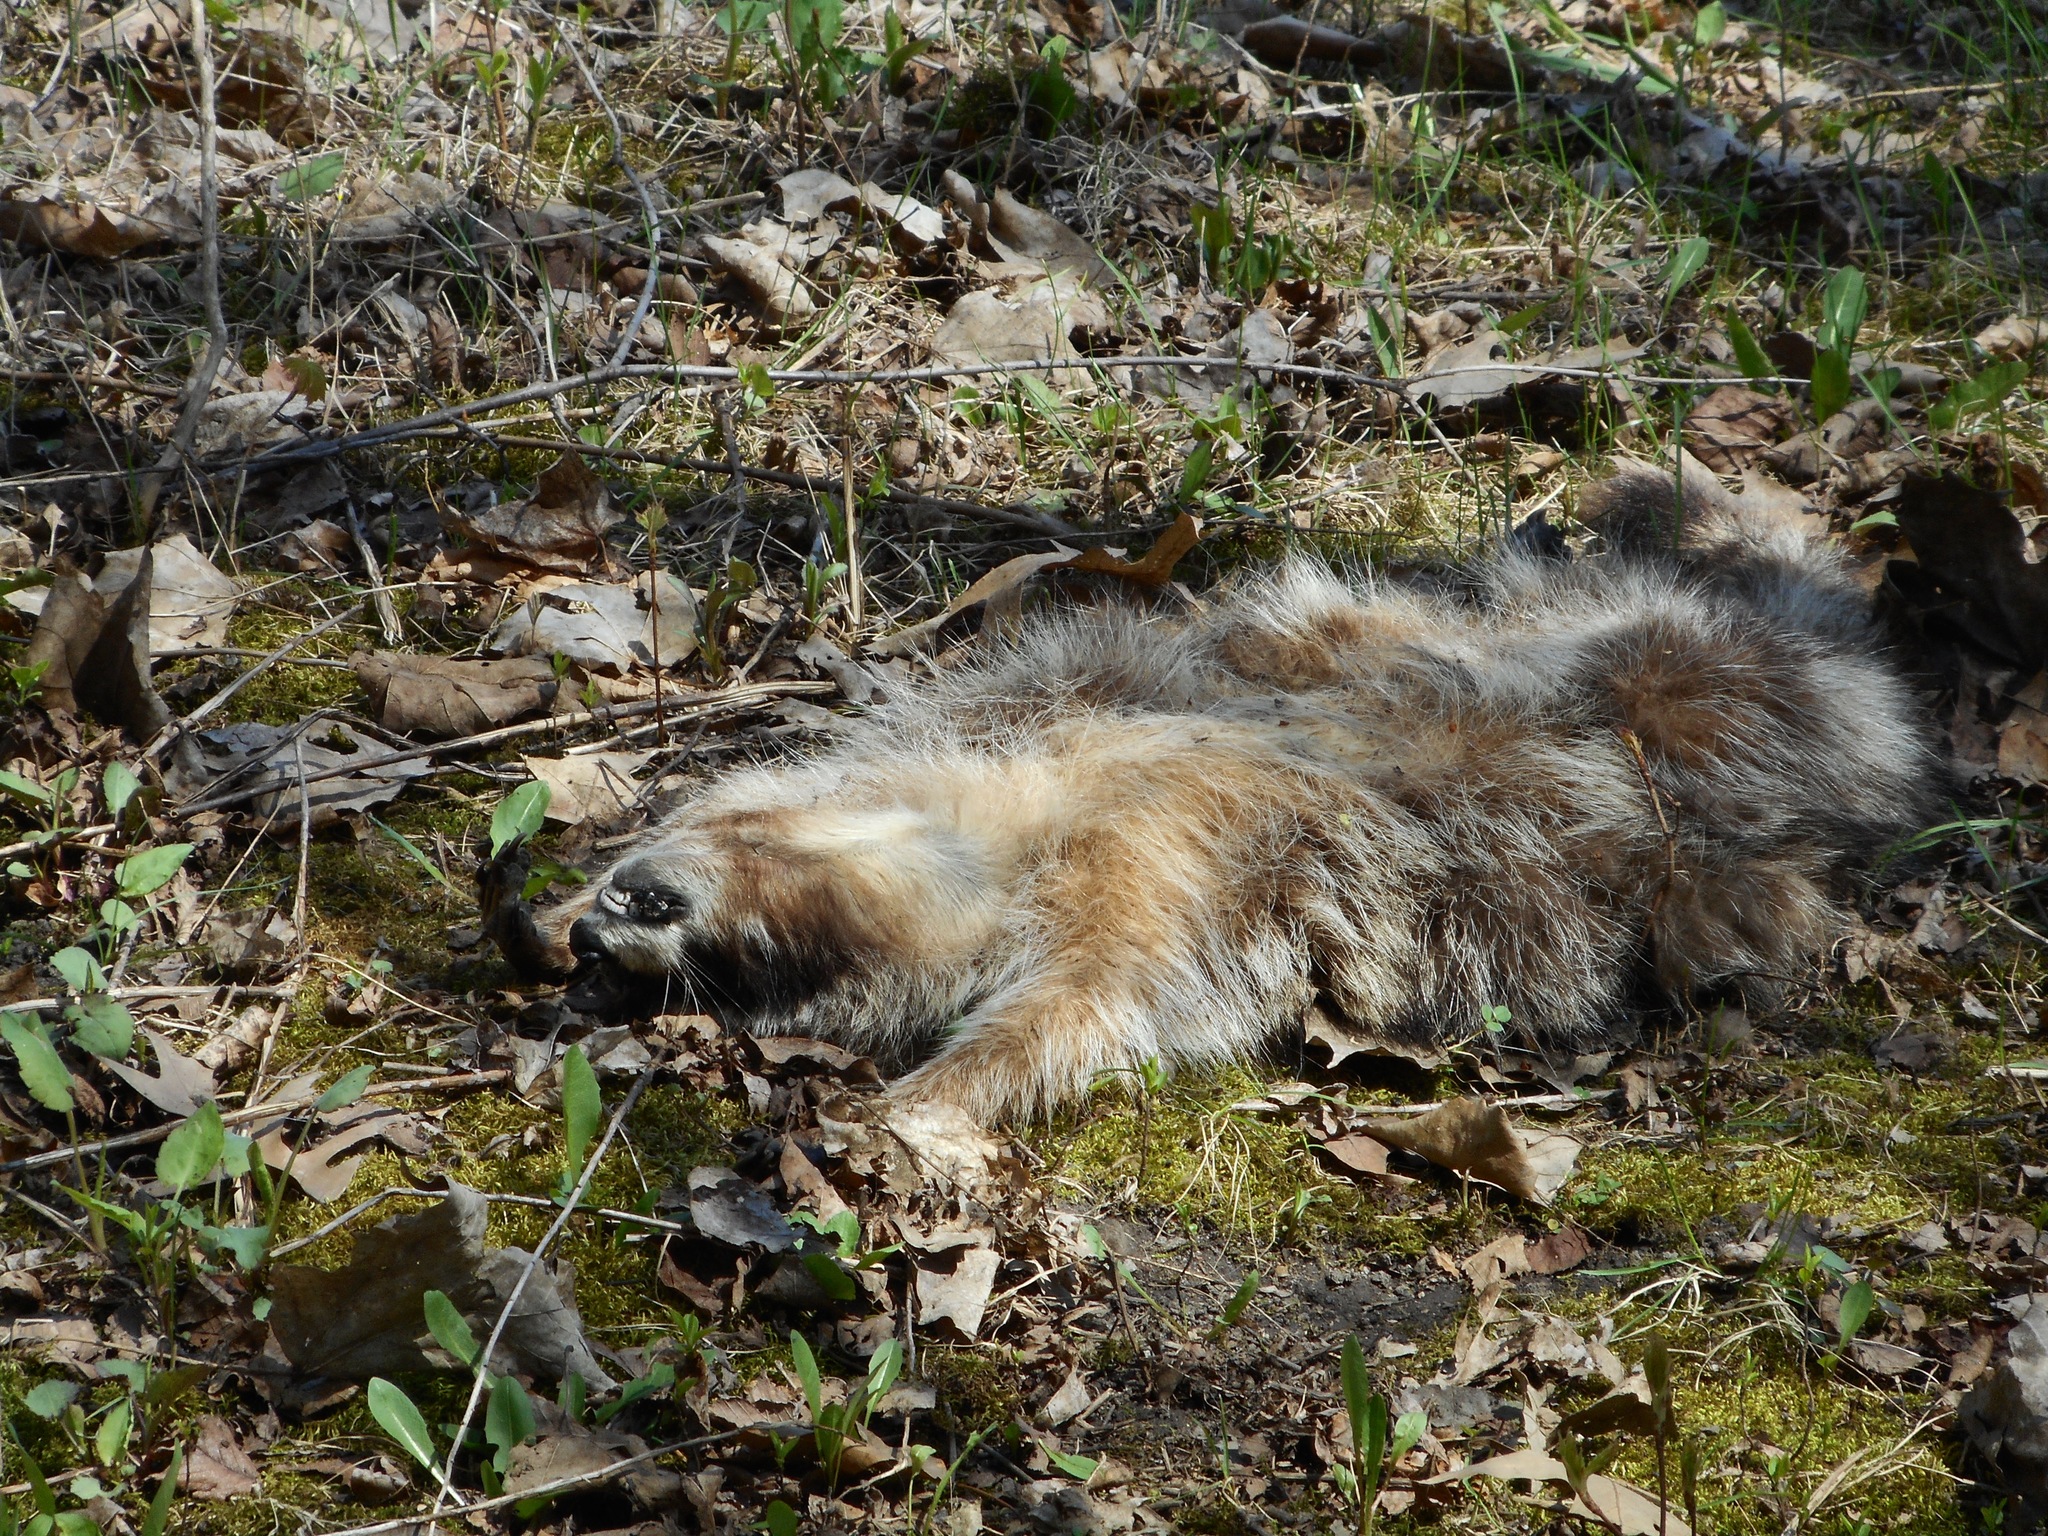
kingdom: Animalia
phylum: Chordata
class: Mammalia
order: Carnivora
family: Procyonidae
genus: Procyon
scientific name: Procyon lotor
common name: Raccoon
